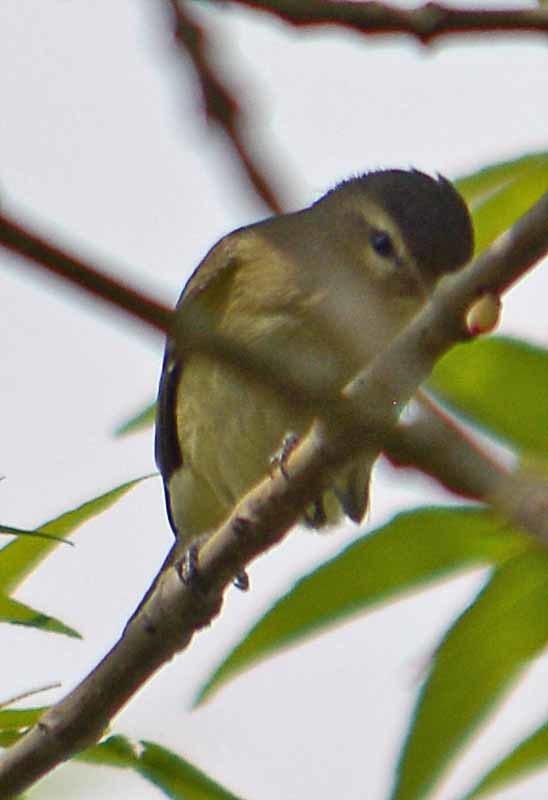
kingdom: Animalia
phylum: Chordata
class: Aves
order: Passeriformes
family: Vireonidae
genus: Vireo
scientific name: Vireo gilvus
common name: Warbling vireo
